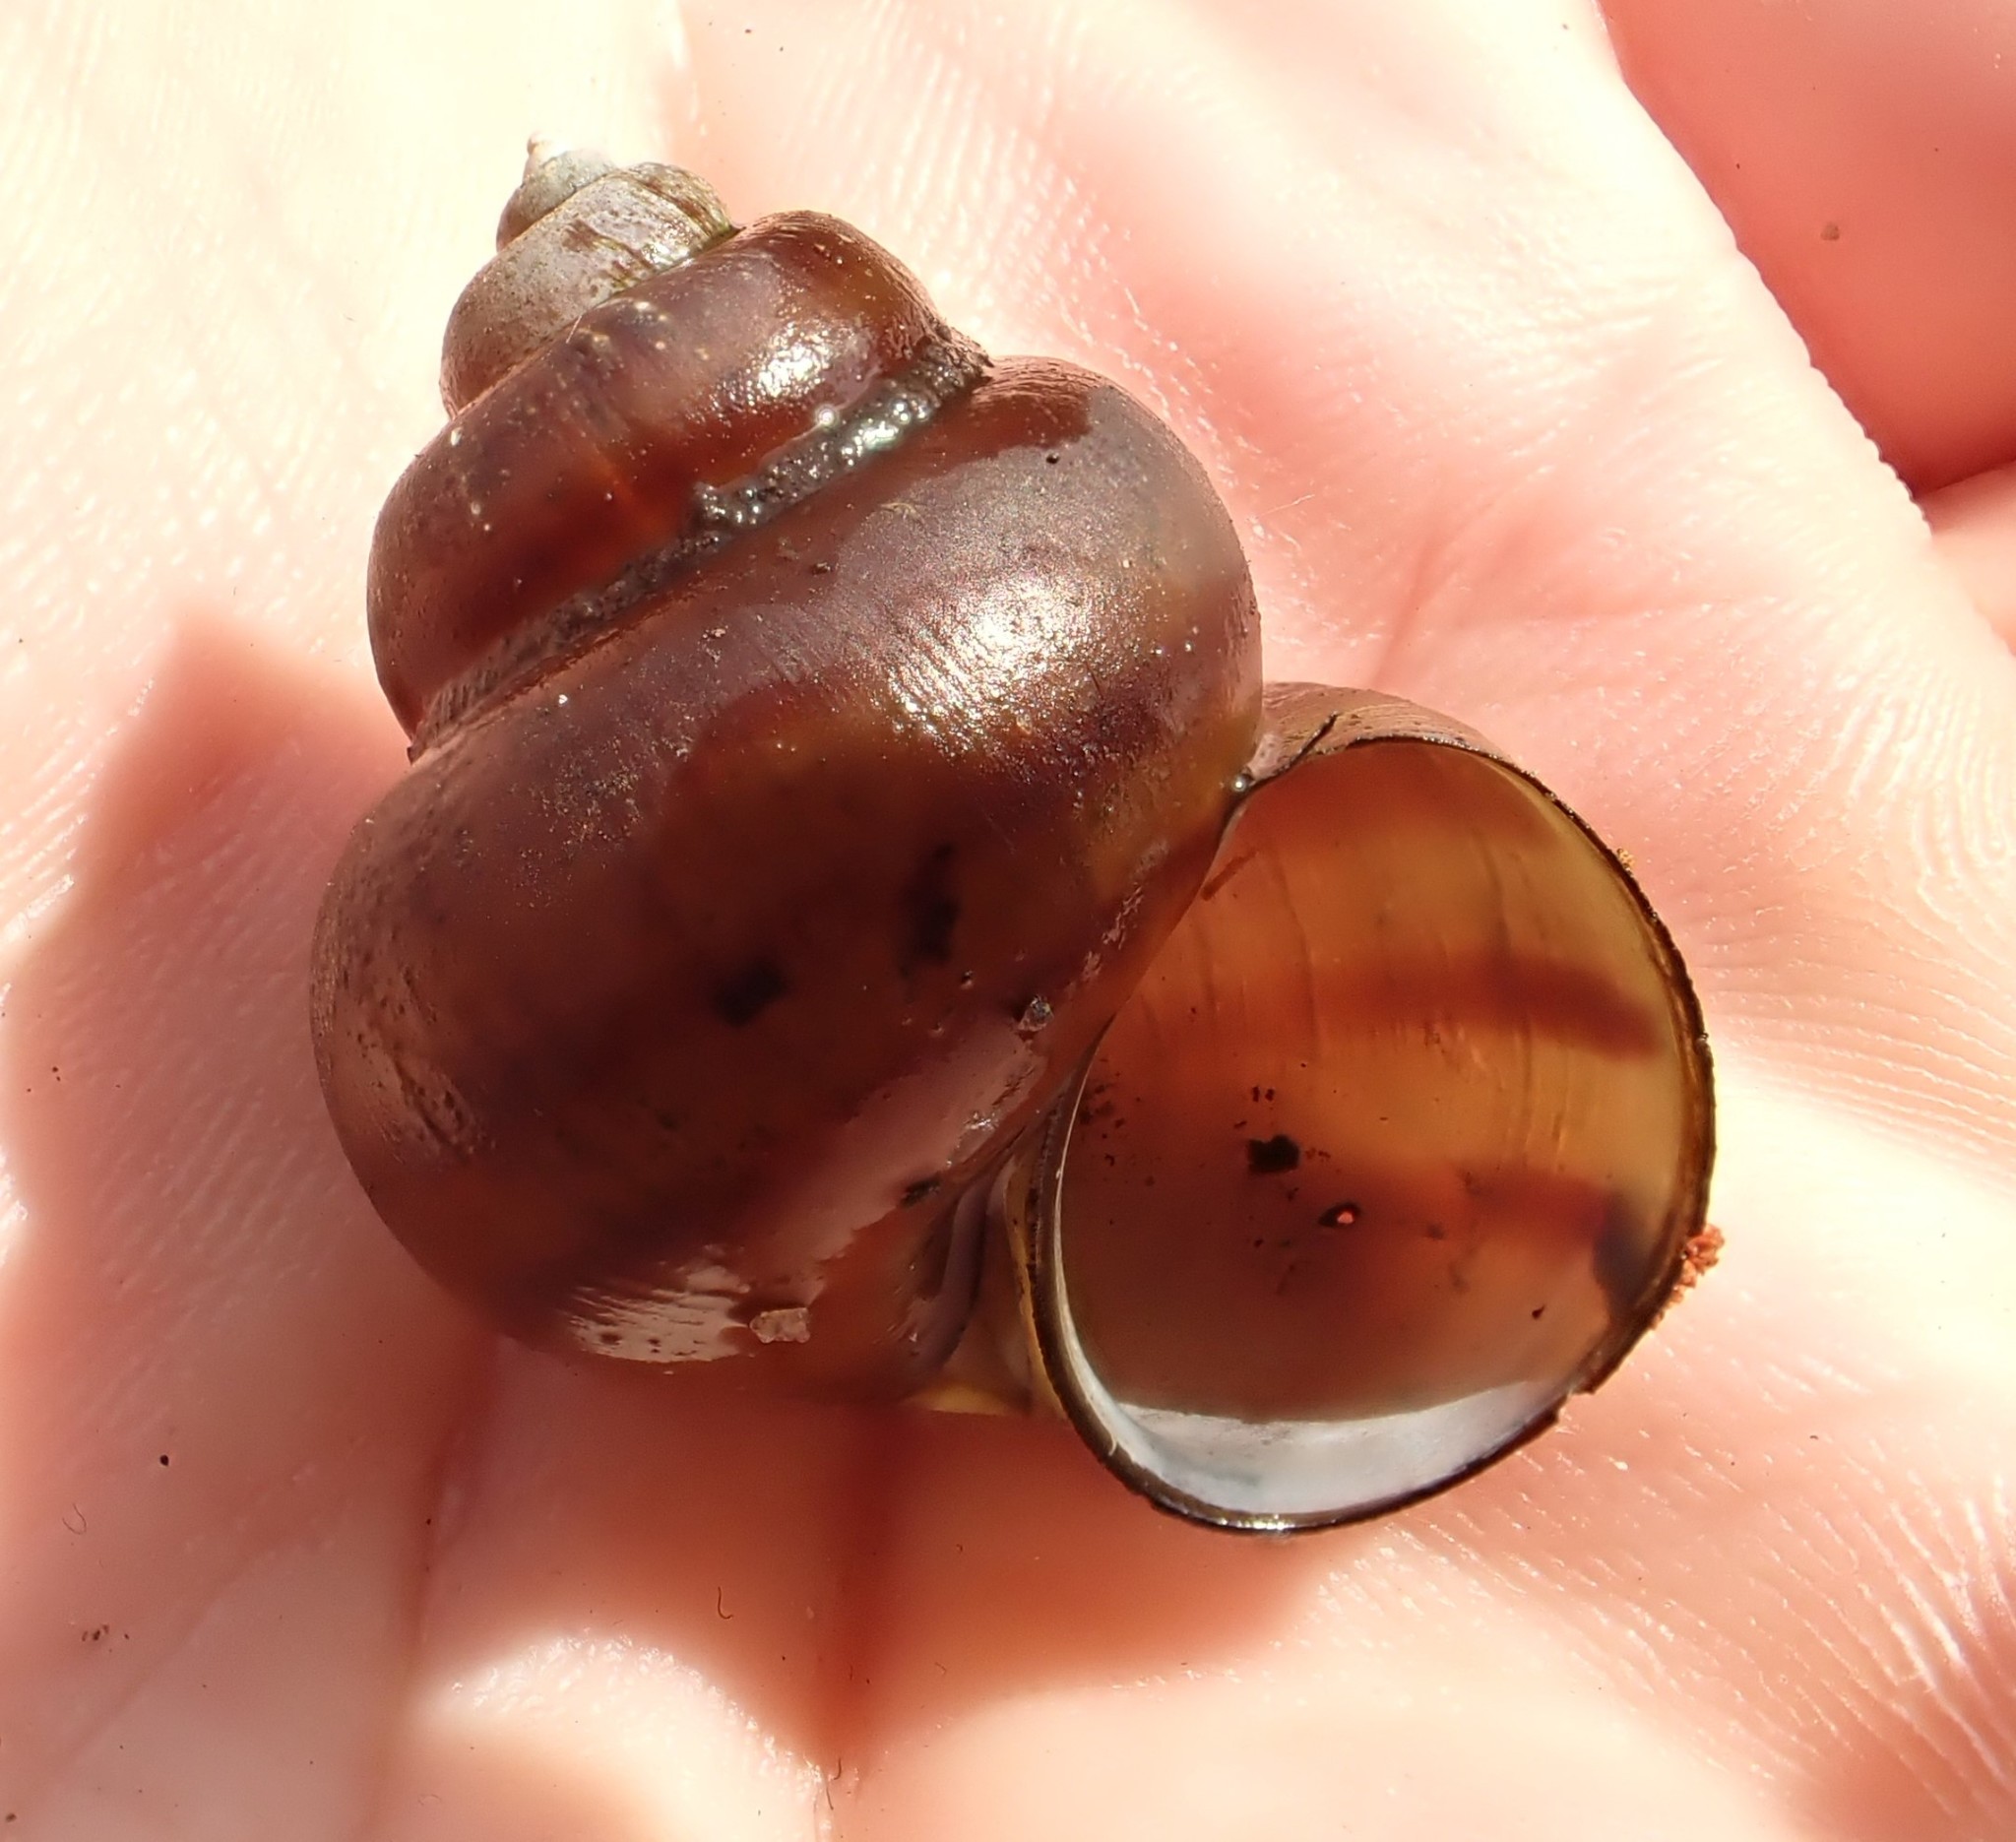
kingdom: Animalia
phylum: Mollusca
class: Gastropoda
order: Architaenioglossa
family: Viviparidae
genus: Viviparus
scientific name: Viviparus contectus
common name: Lister's river snail
